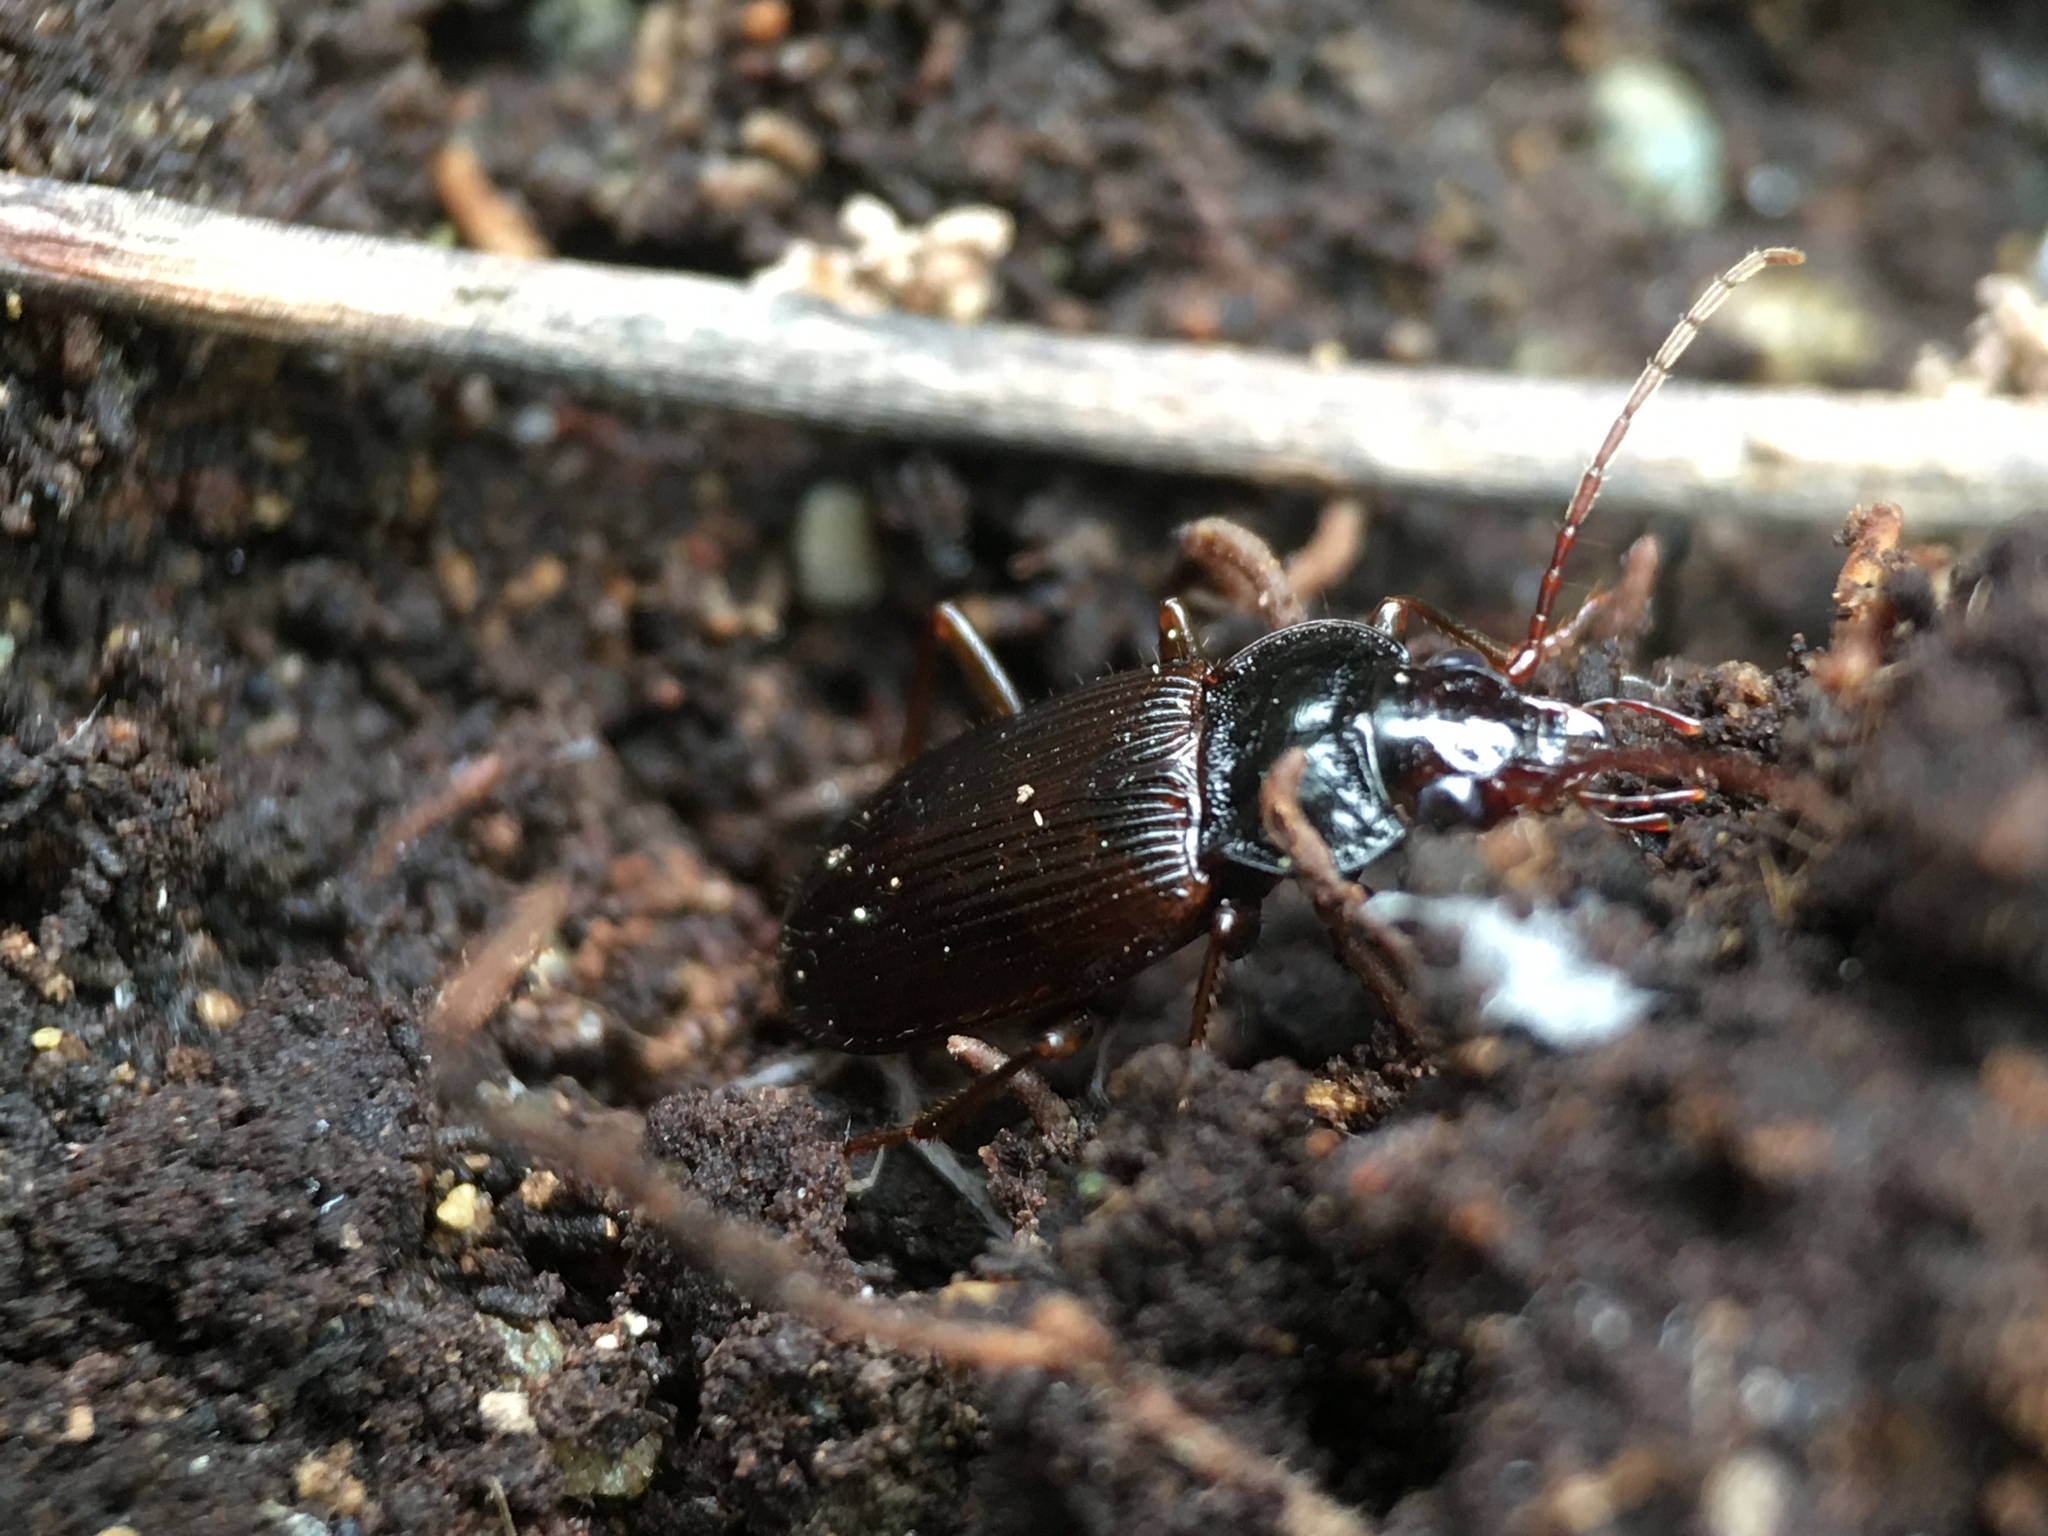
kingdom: Animalia
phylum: Arthropoda
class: Insecta
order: Coleoptera
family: Carabidae
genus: Nebria
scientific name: Nebria brevicollis
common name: Short-necked gazelle beetle
